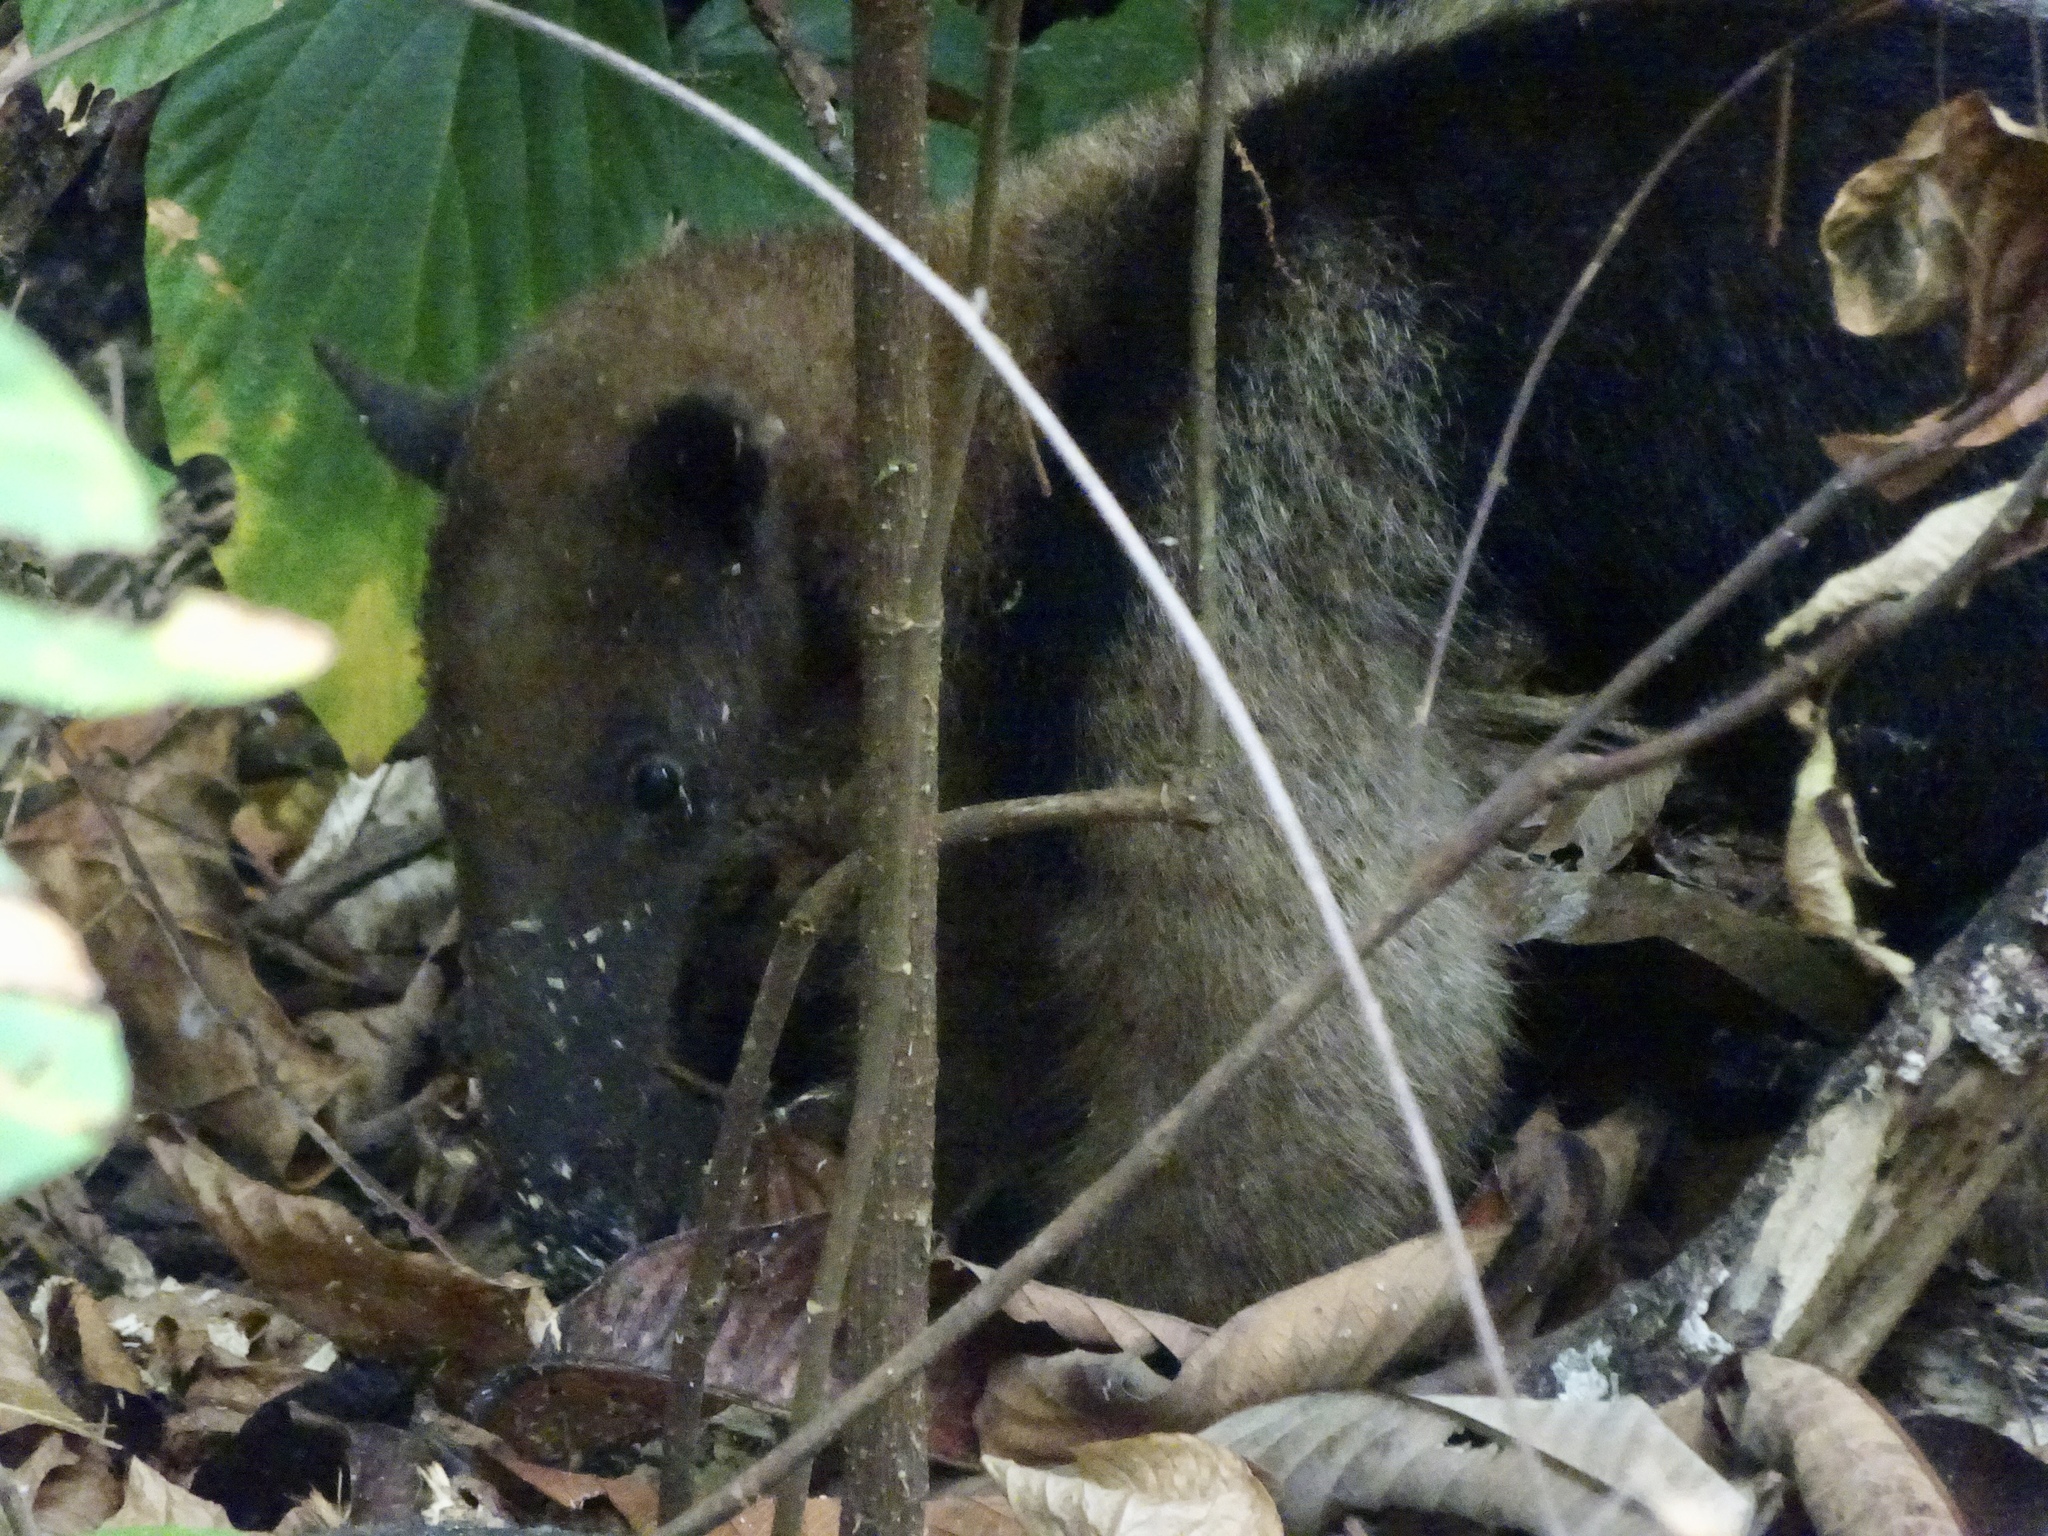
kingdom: Animalia
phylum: Chordata
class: Mammalia
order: Pilosa
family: Myrmecophagidae
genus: Tamandua
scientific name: Tamandua mexicana
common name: Northern tamandua
